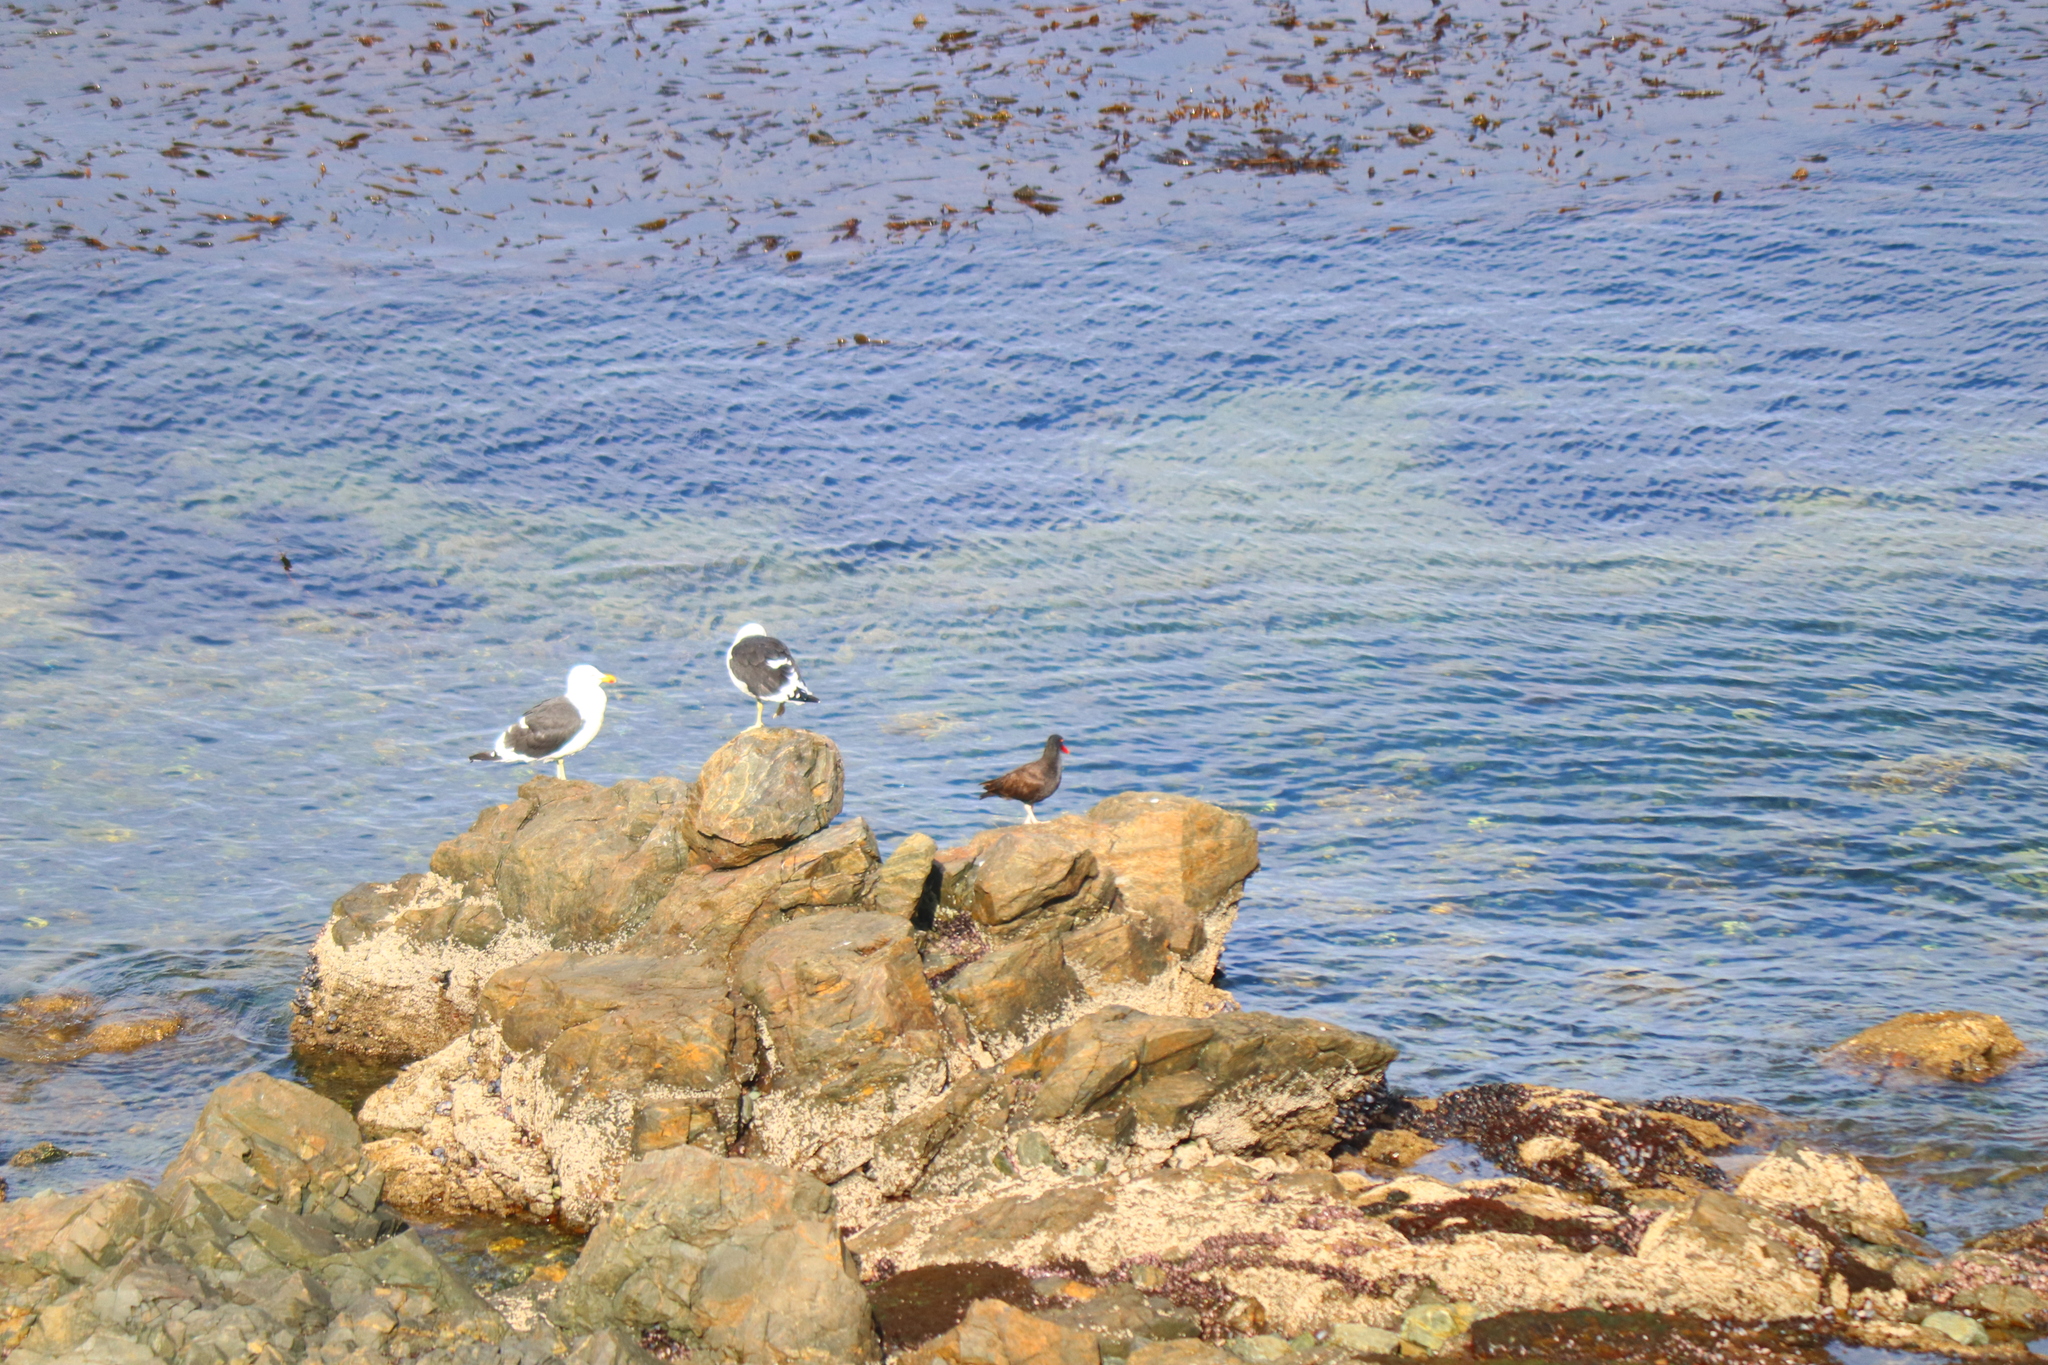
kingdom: Animalia
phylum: Chordata
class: Aves
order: Charadriiformes
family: Haematopodidae
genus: Haematopus
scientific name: Haematopus ater
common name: Blackish oystercatcher
